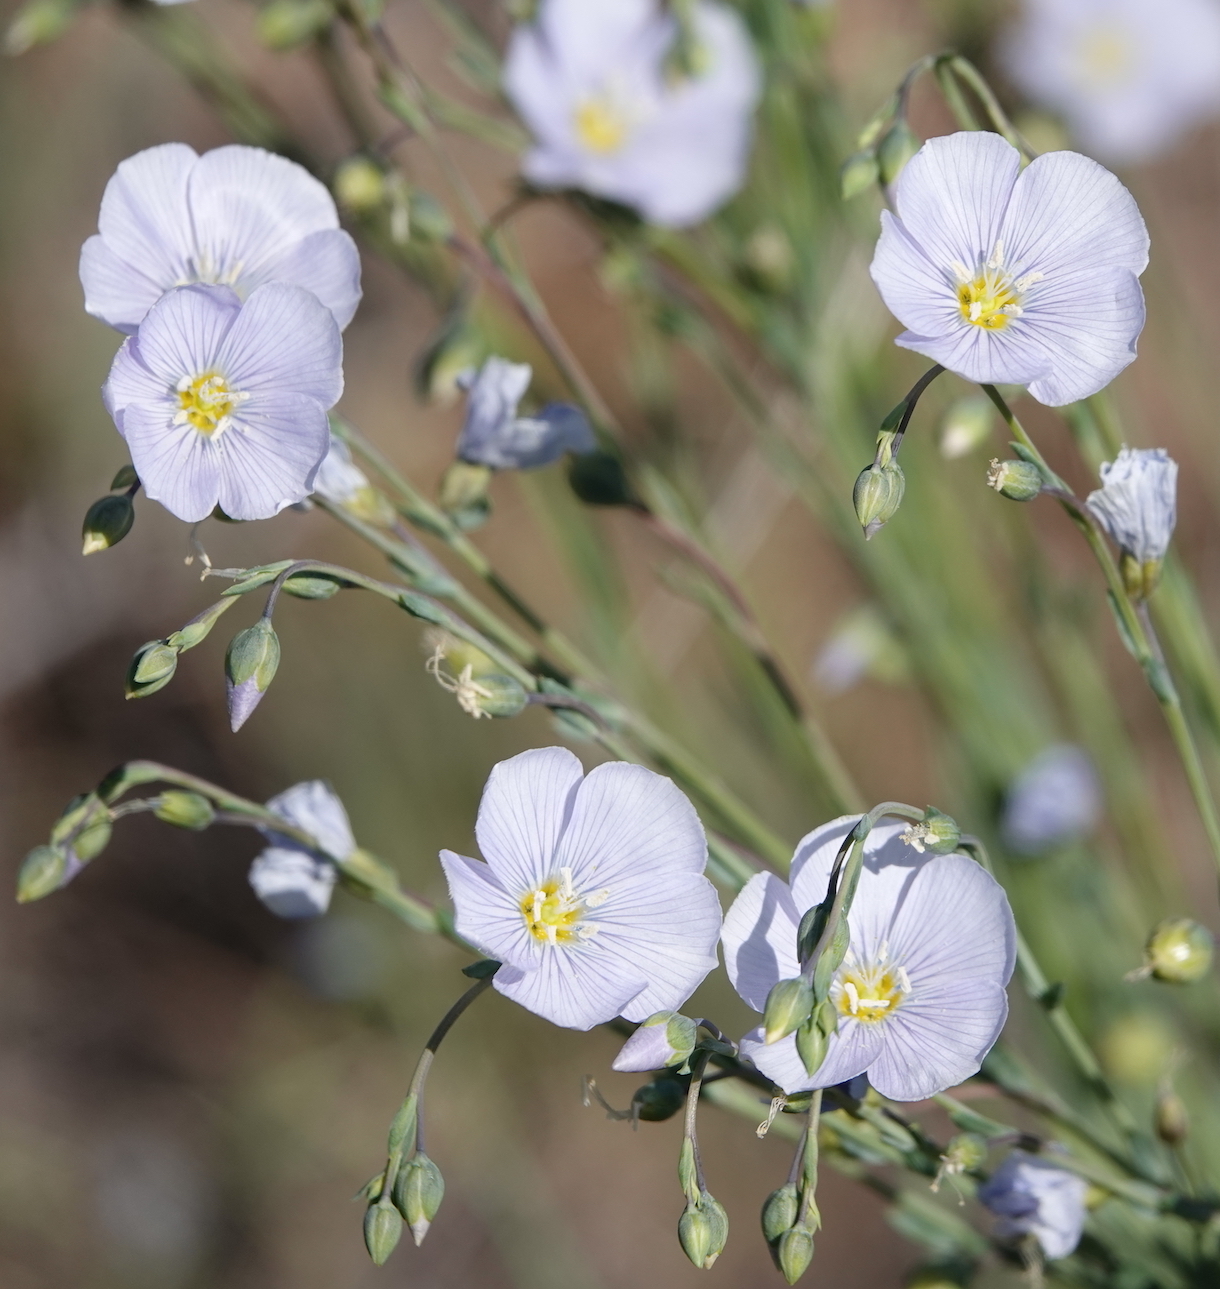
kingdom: Plantae
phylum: Tracheophyta
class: Magnoliopsida
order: Malpighiales
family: Linaceae
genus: Linum
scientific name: Linum lewisii
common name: Prairie flax
